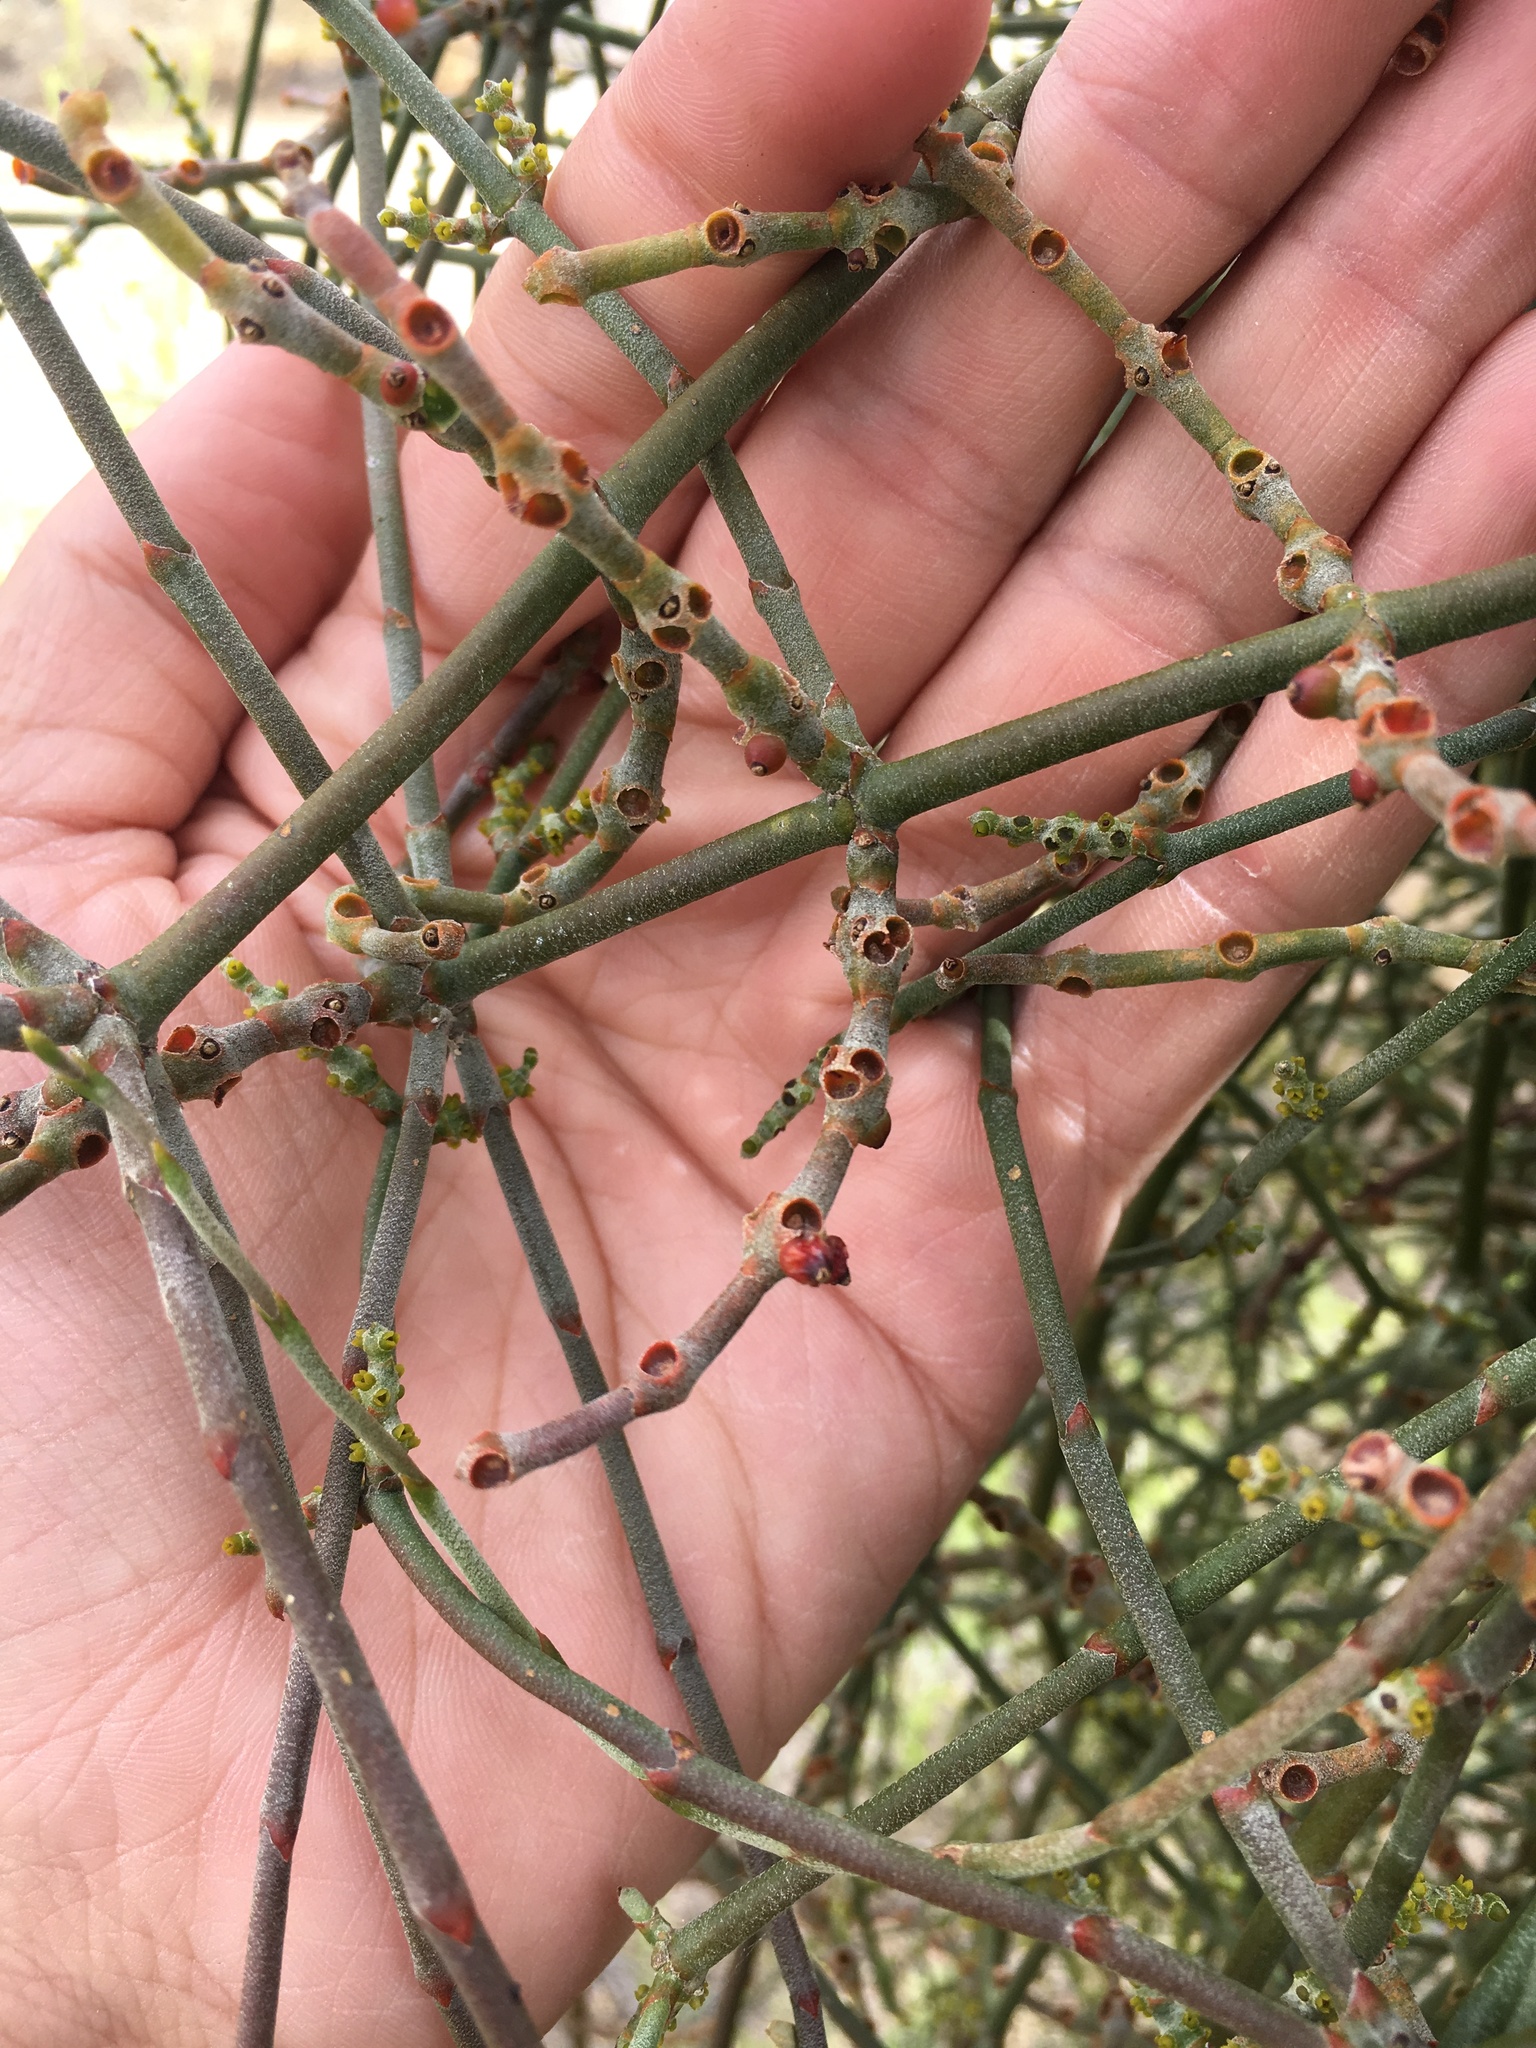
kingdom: Plantae
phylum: Tracheophyta
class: Magnoliopsida
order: Santalales
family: Viscaceae
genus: Phoradendron
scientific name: Phoradendron californicum
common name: Acacia mistletoe
